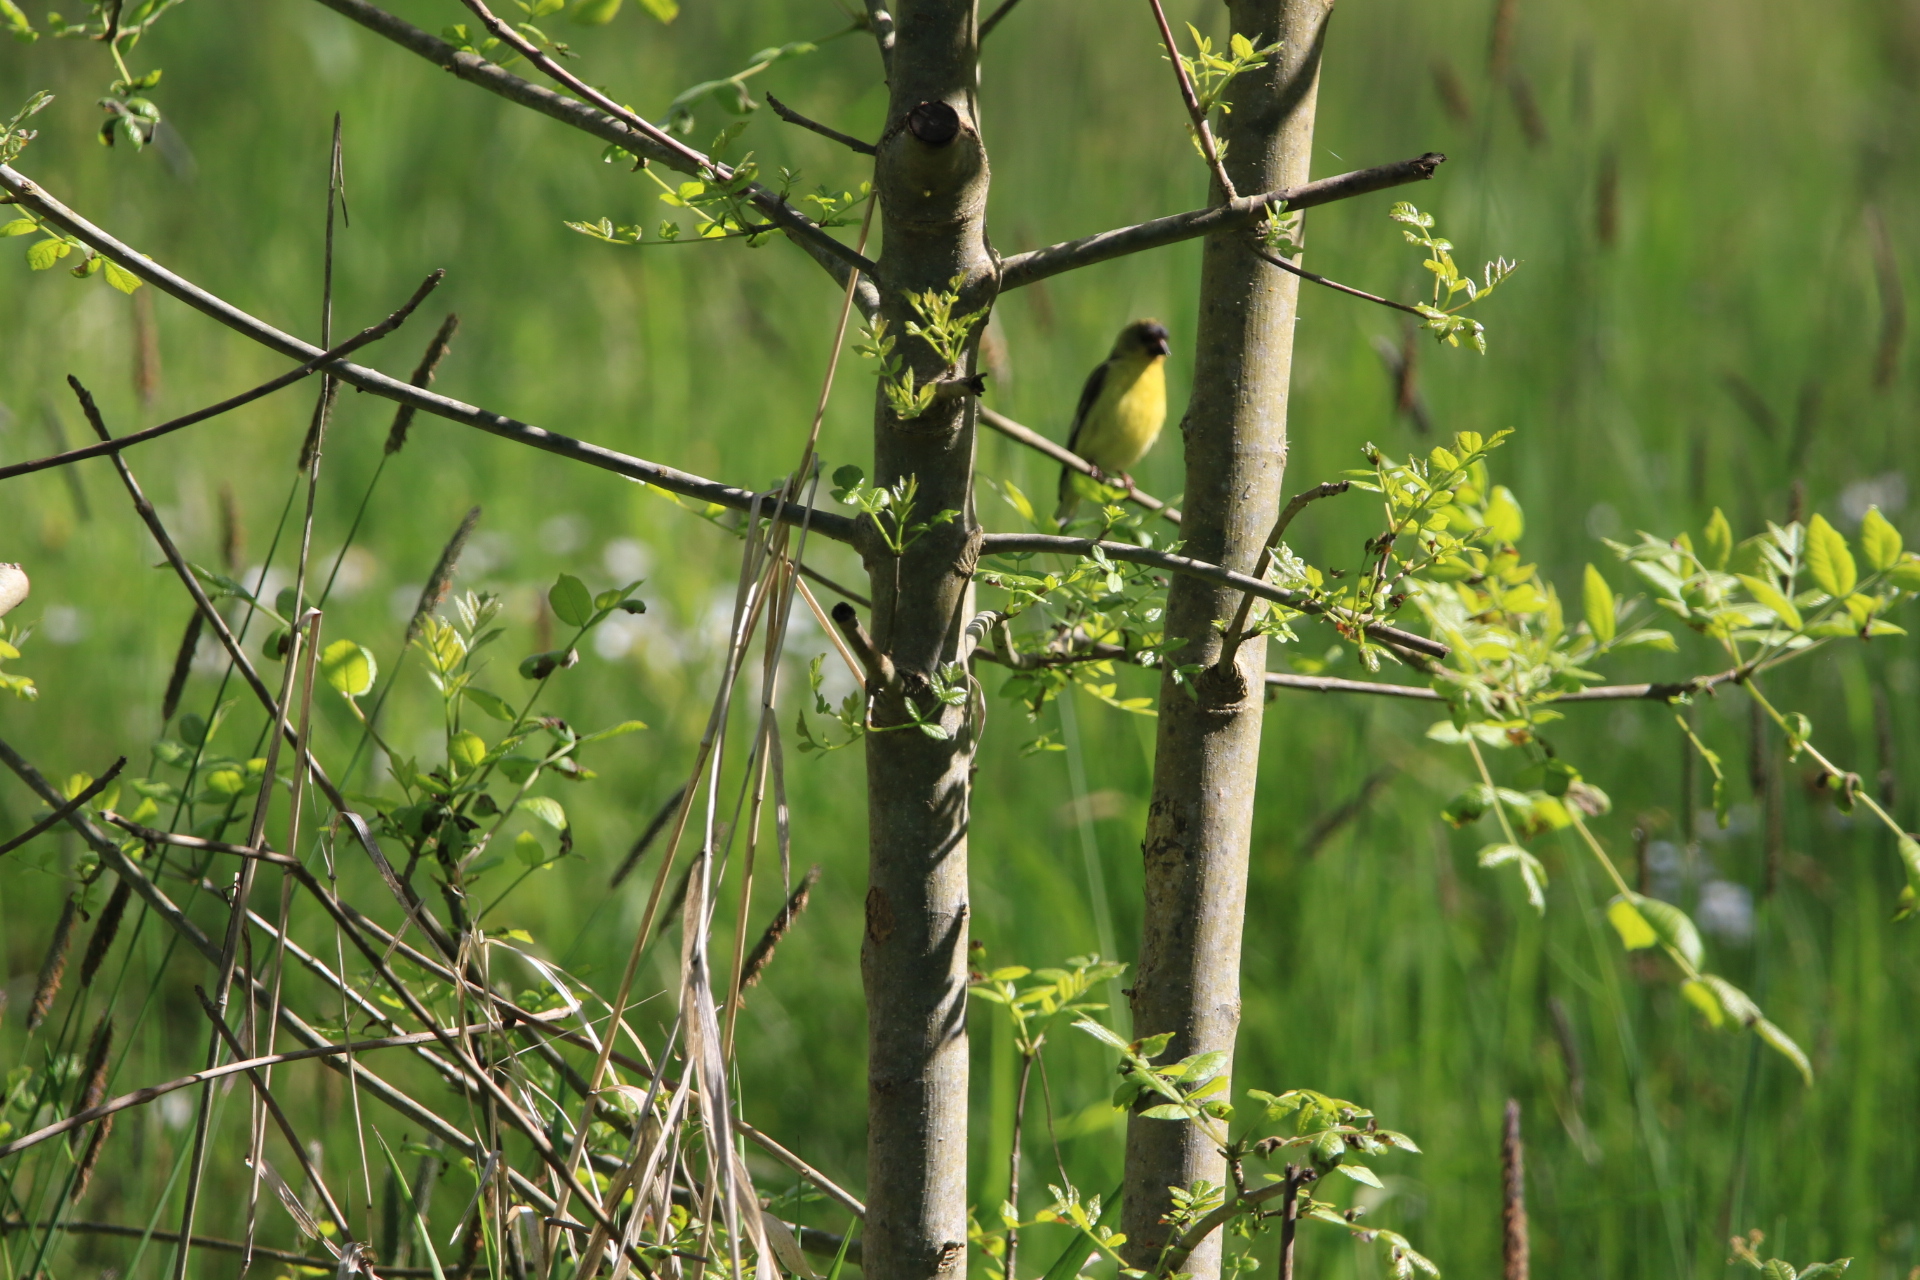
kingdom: Animalia
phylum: Chordata
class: Aves
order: Passeriformes
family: Fringillidae
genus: Spinus
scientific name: Spinus psaltria
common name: Lesser goldfinch
